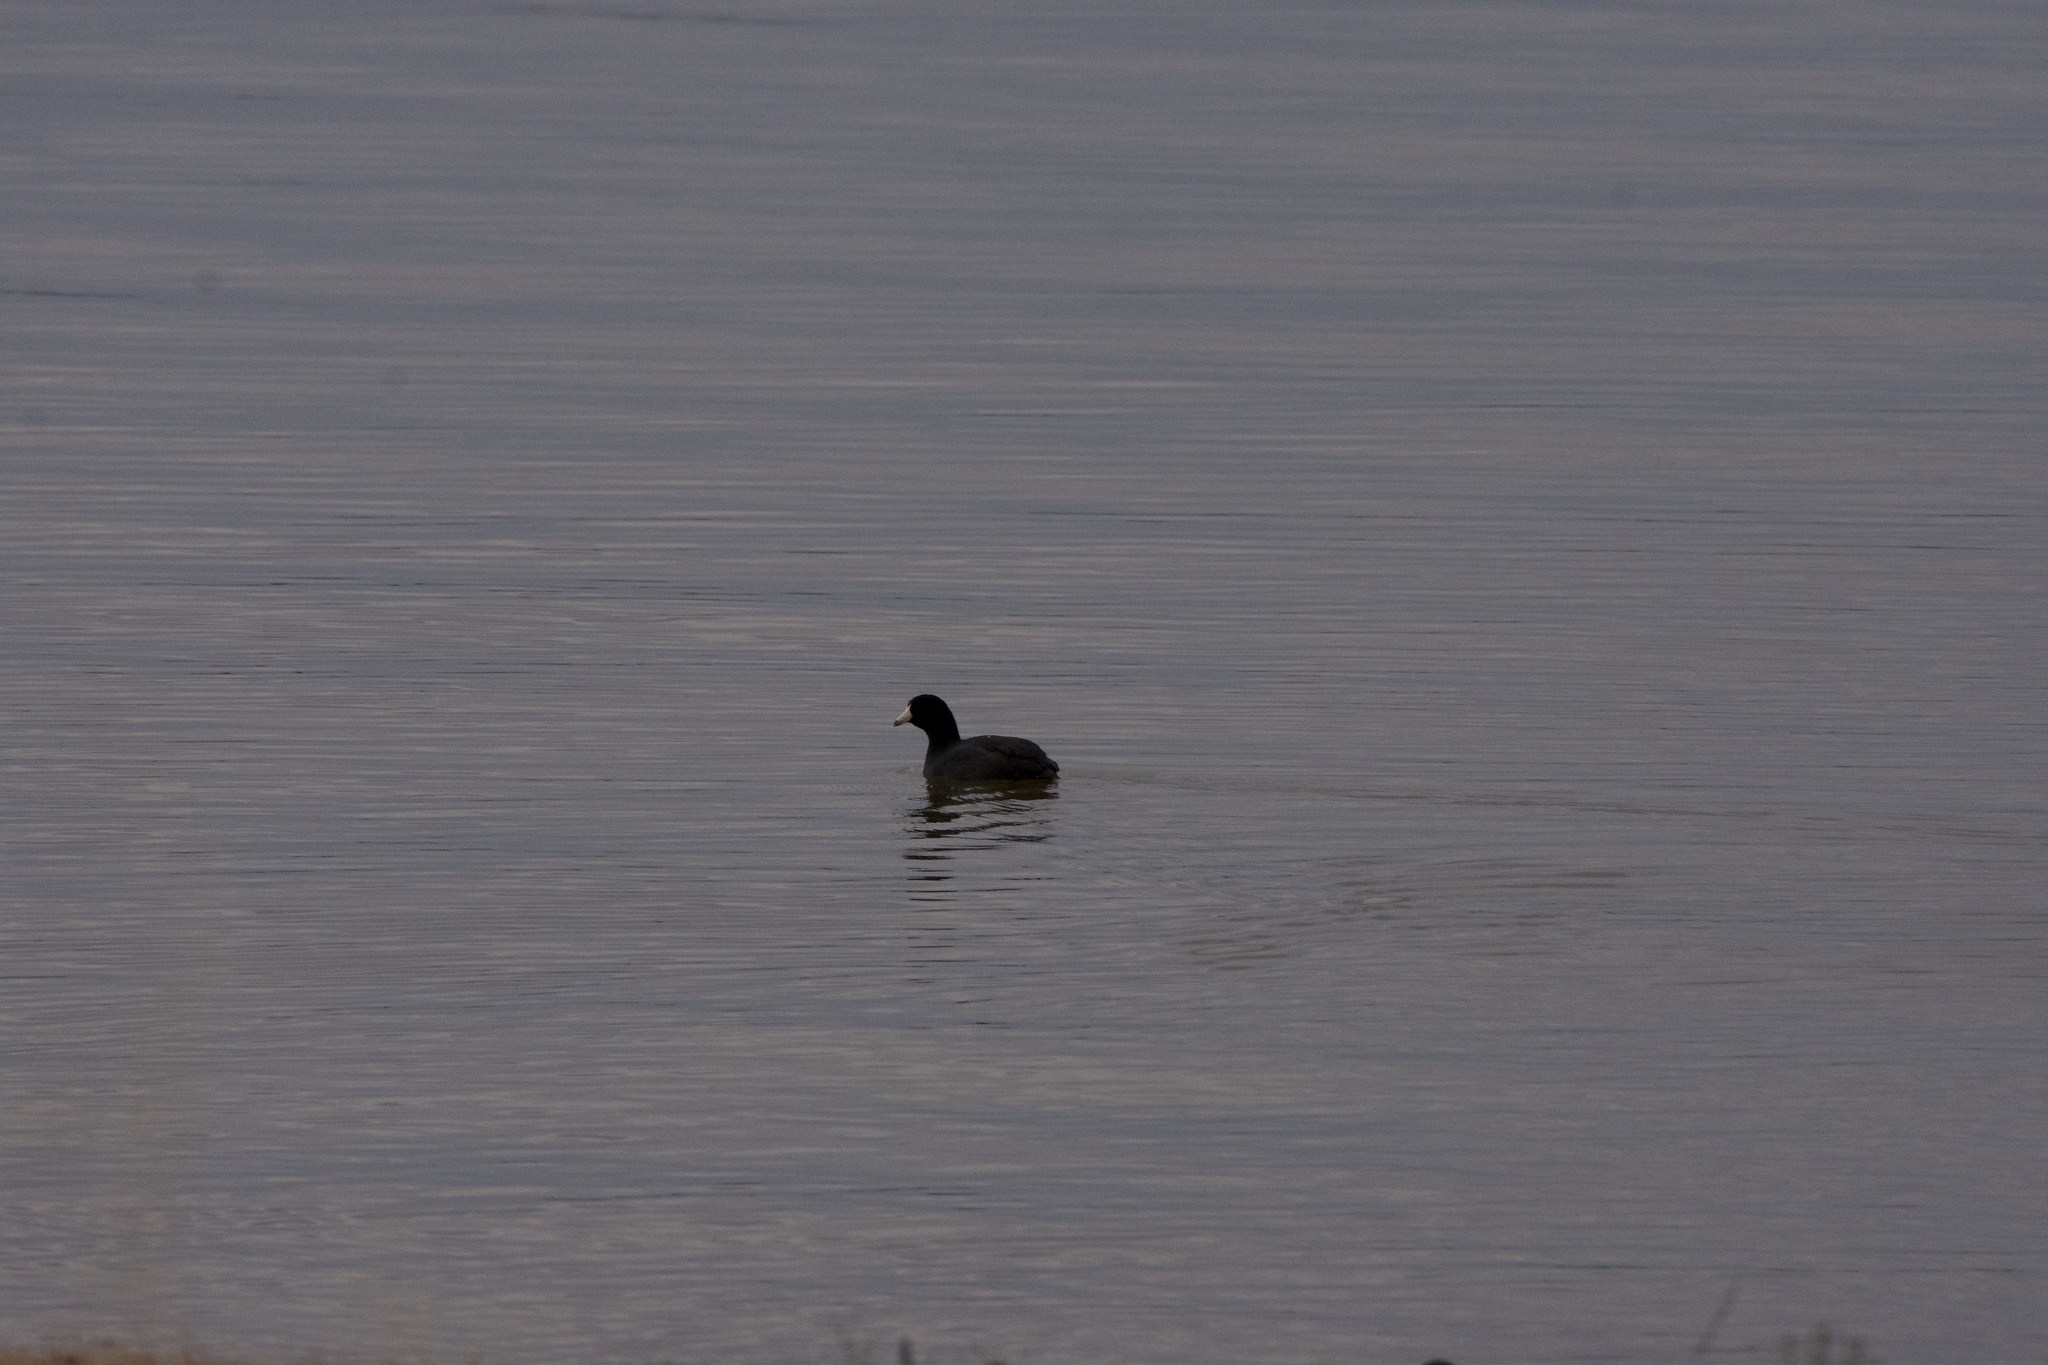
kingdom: Animalia
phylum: Chordata
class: Aves
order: Gruiformes
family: Rallidae
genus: Fulica
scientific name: Fulica americana
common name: American coot
